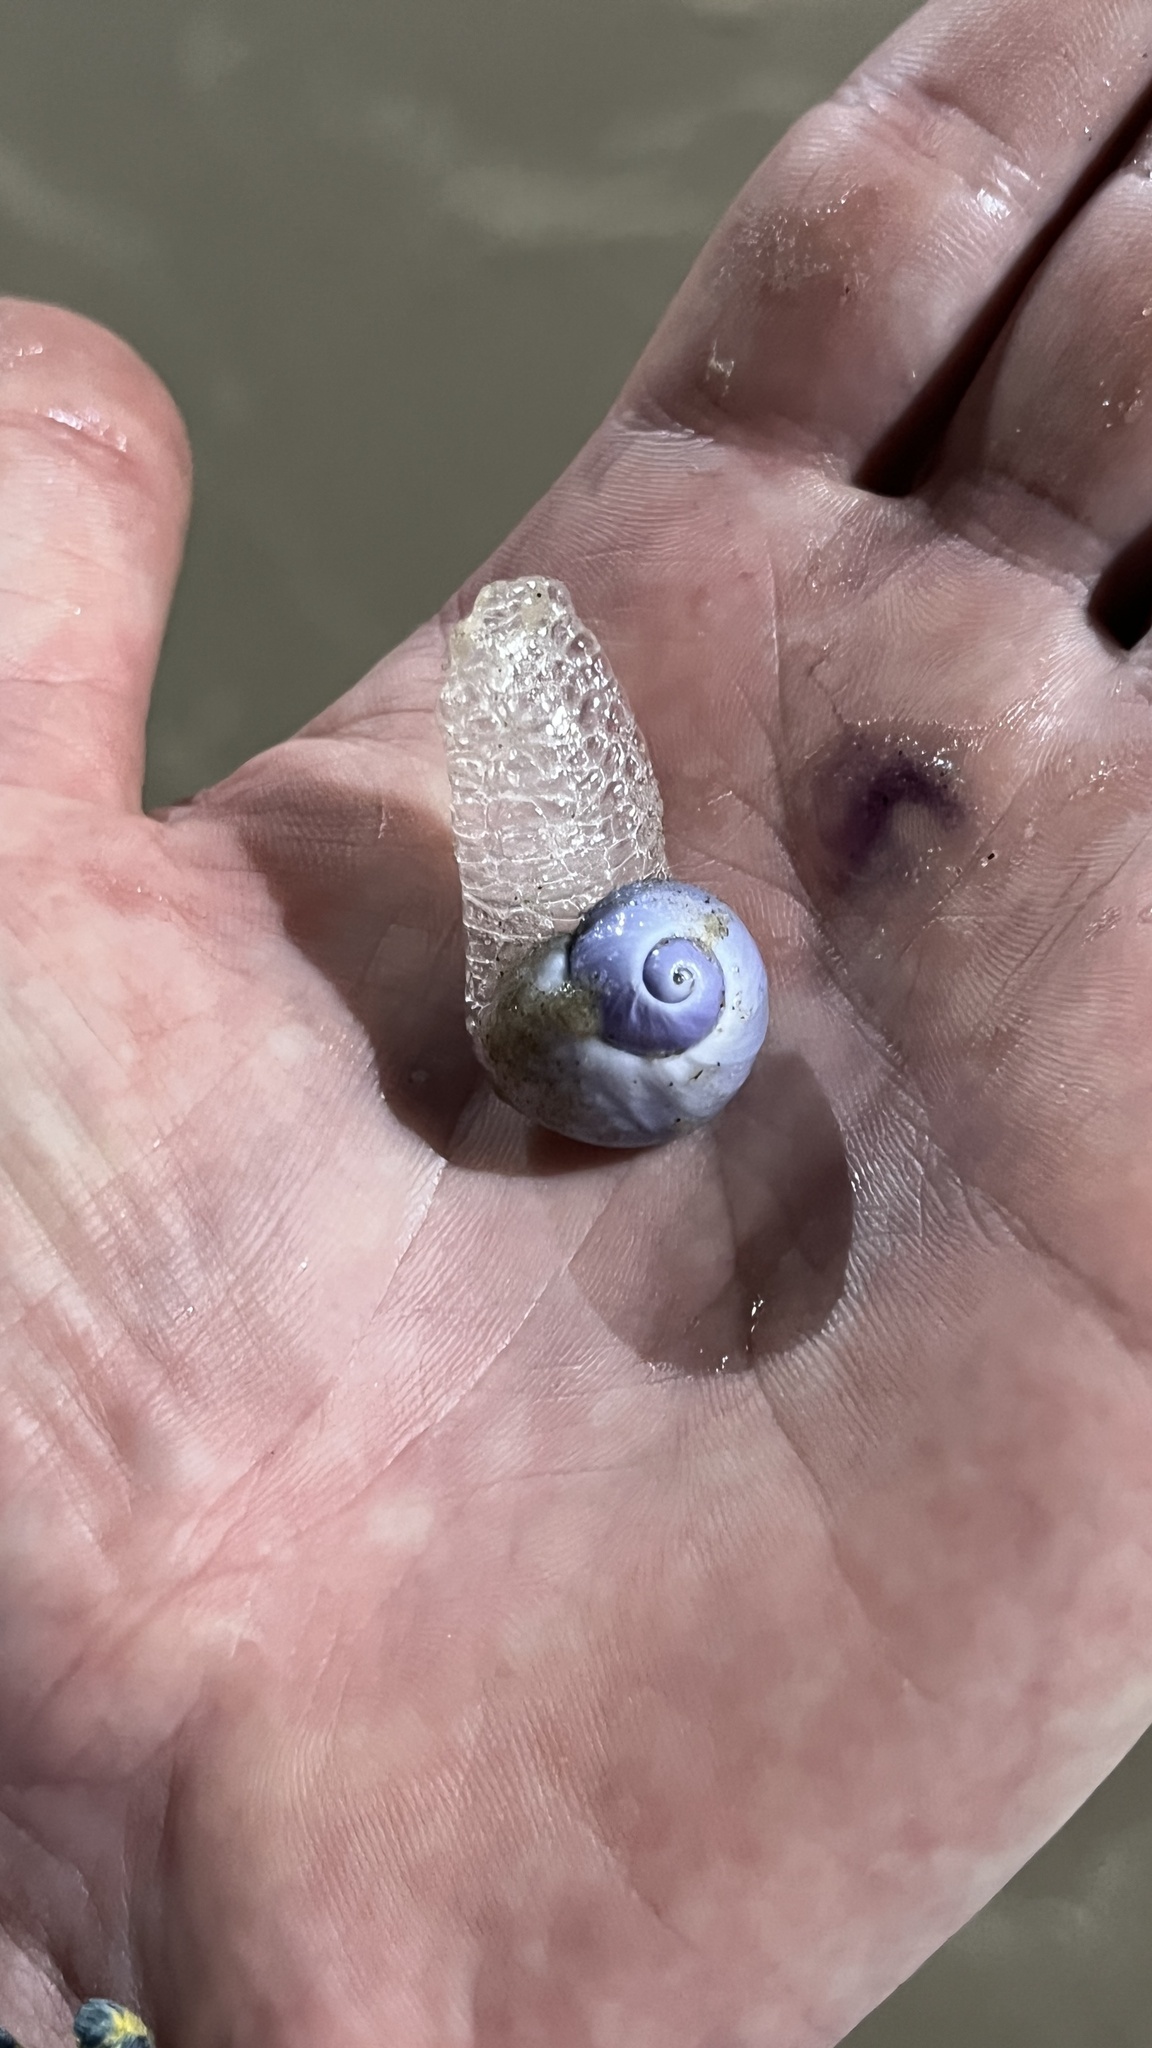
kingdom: Animalia
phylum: Mollusca
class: Gastropoda
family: Epitoniidae
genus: Janthina
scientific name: Janthina janthina
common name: Common janthina
